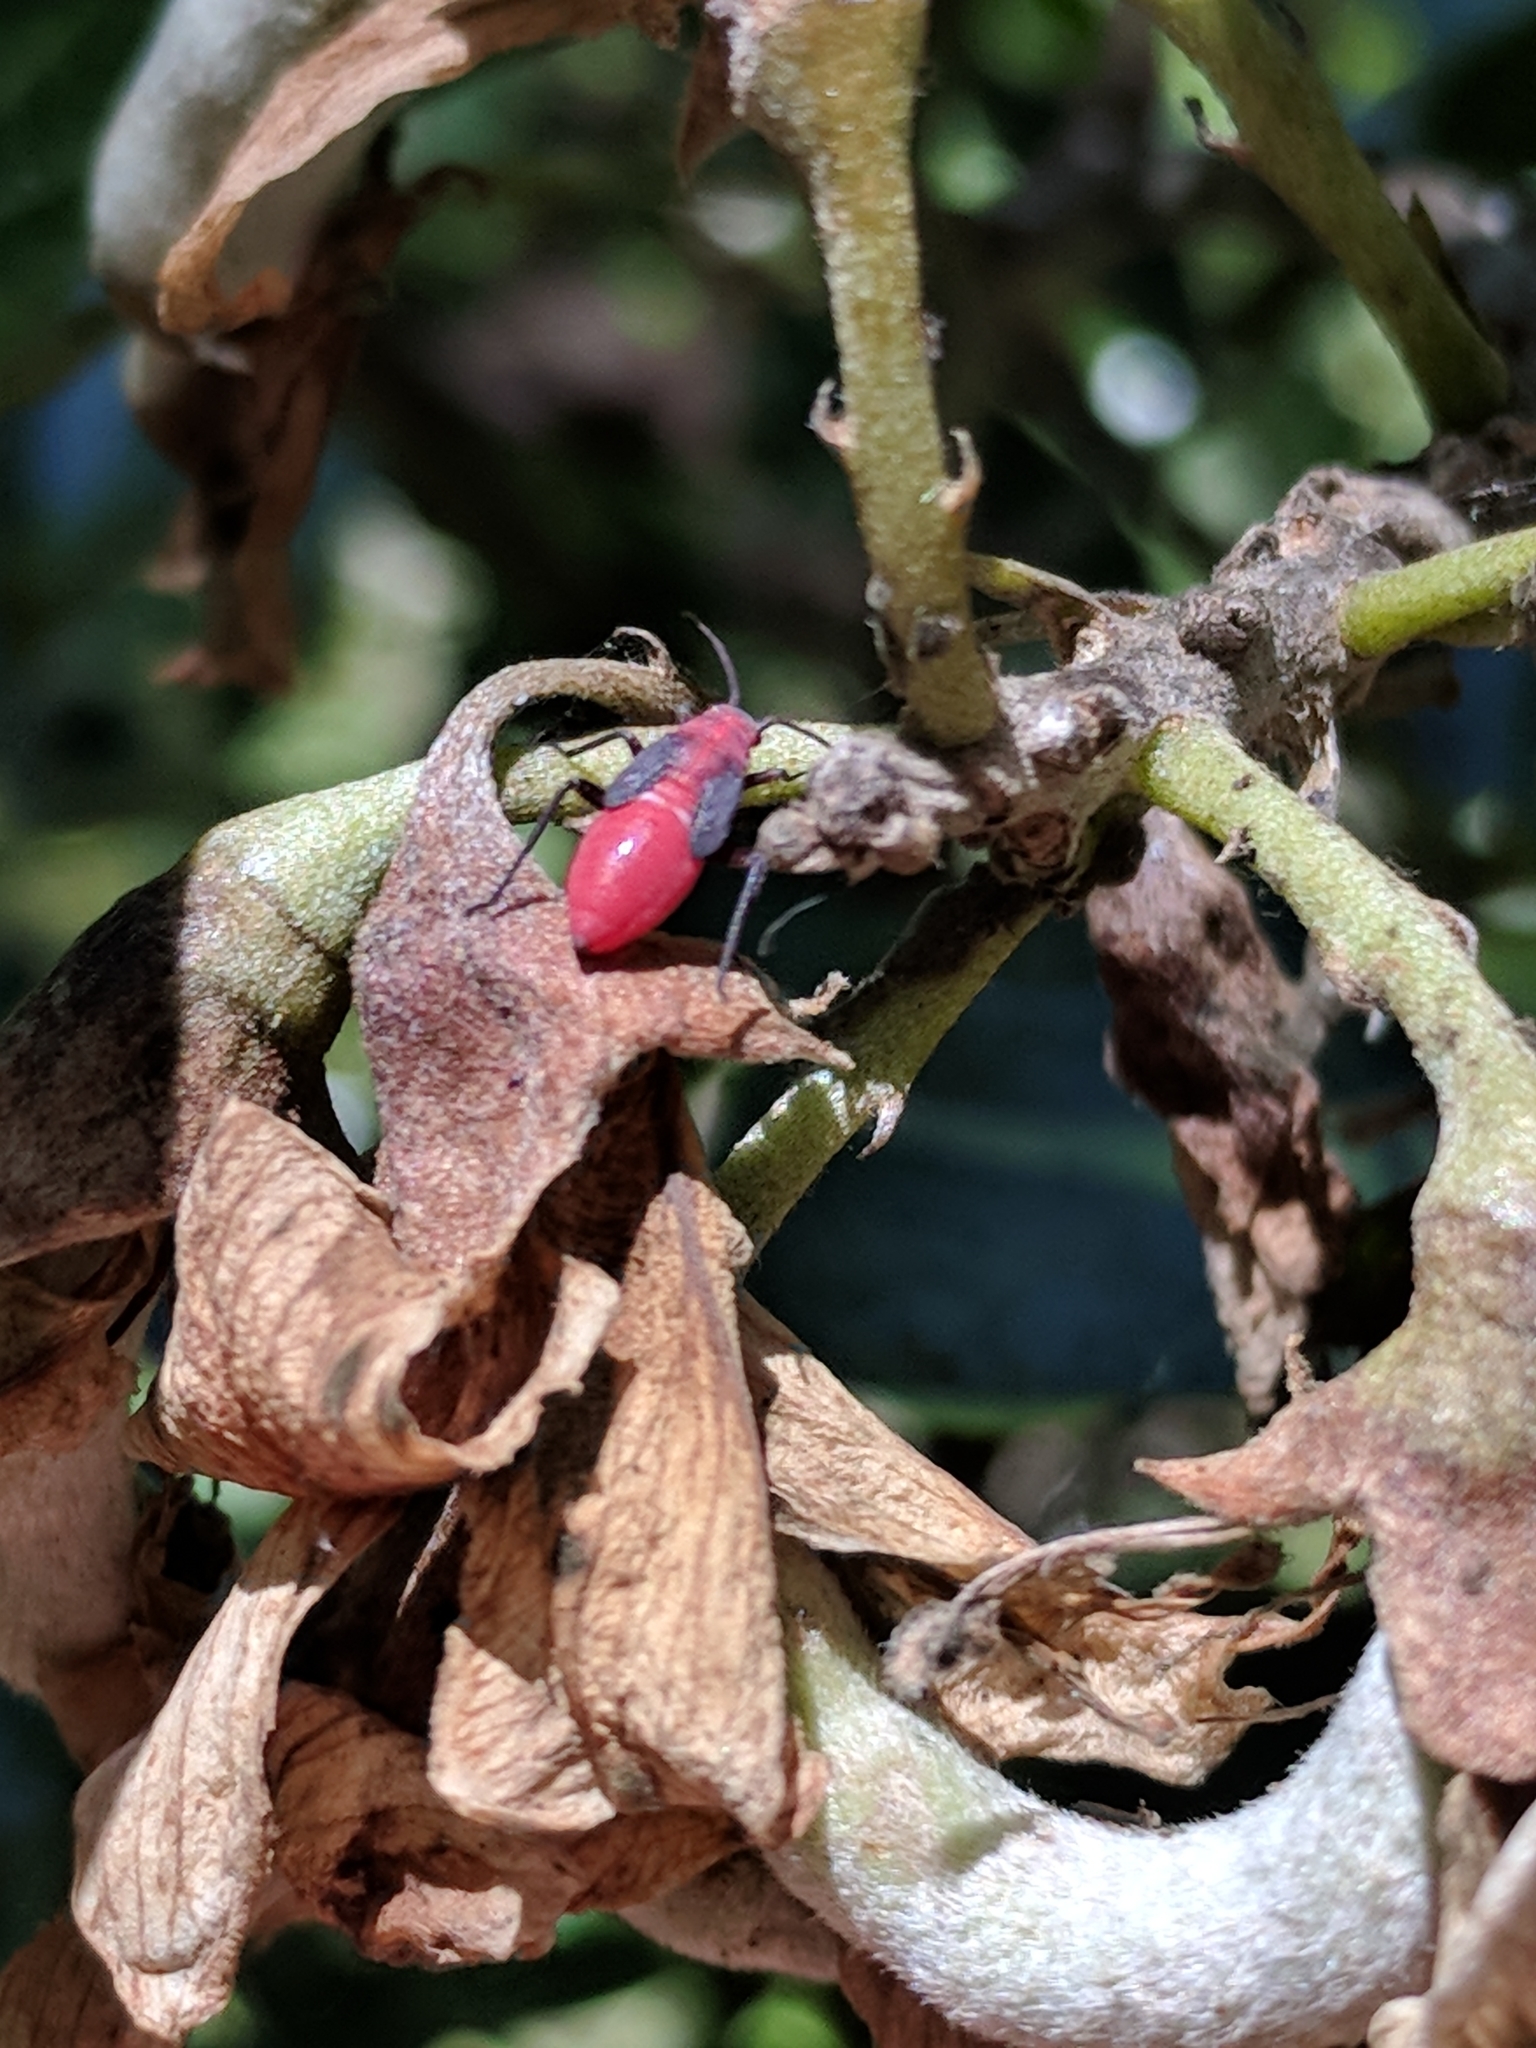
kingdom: Animalia
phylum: Arthropoda
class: Insecta
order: Hemiptera
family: Miridae
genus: Lopidea
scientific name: Lopidea major
